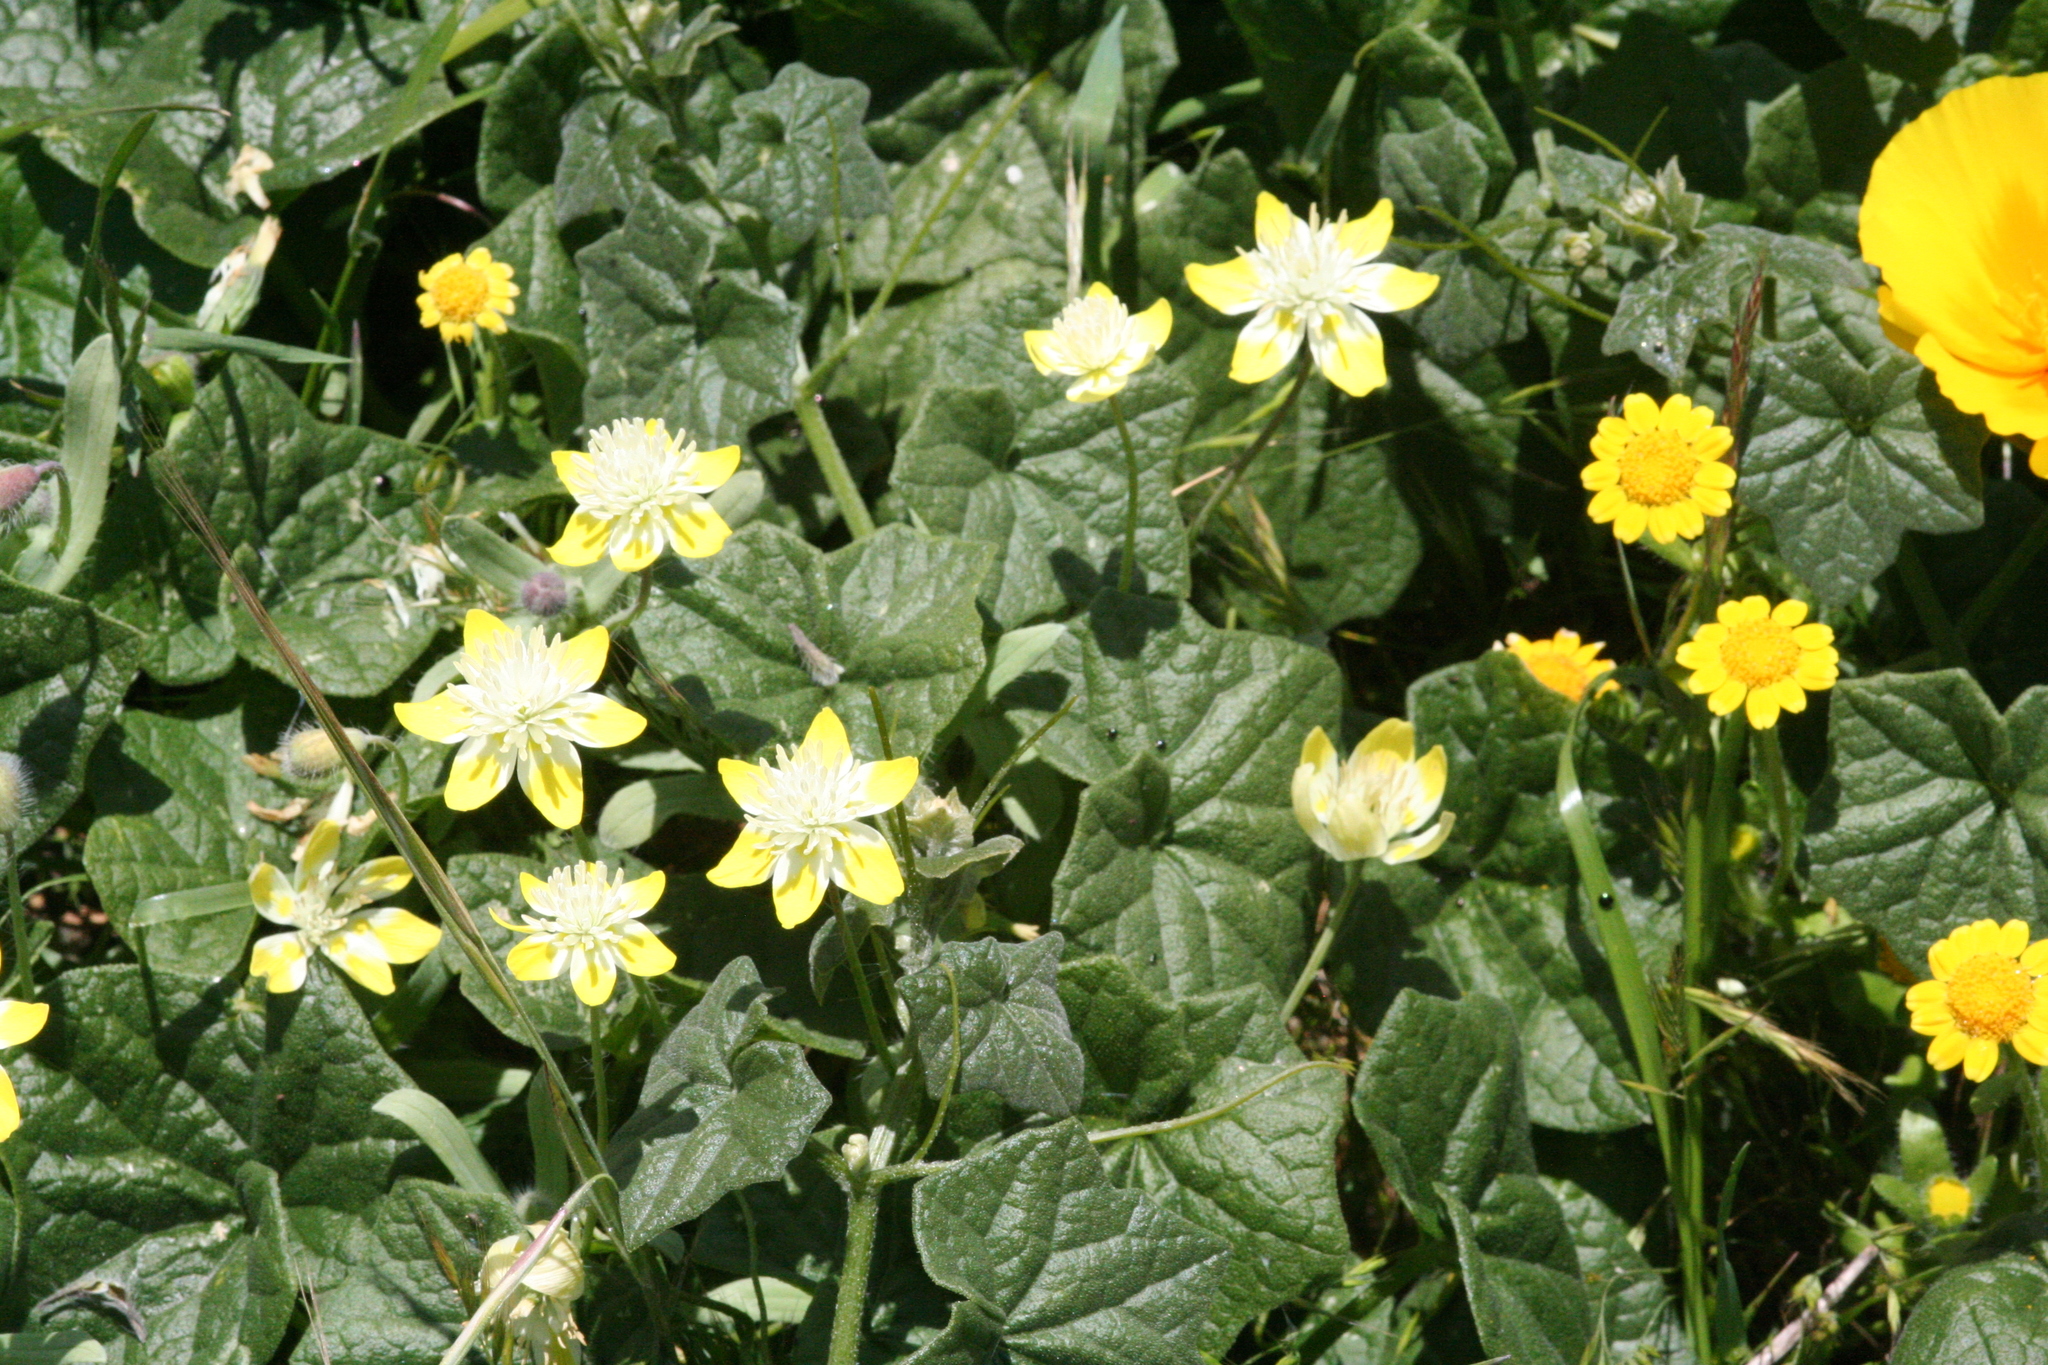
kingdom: Plantae
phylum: Tracheophyta
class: Magnoliopsida
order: Ranunculales
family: Papaveraceae
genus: Platystemon
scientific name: Platystemon californicus
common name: Cream-cups
